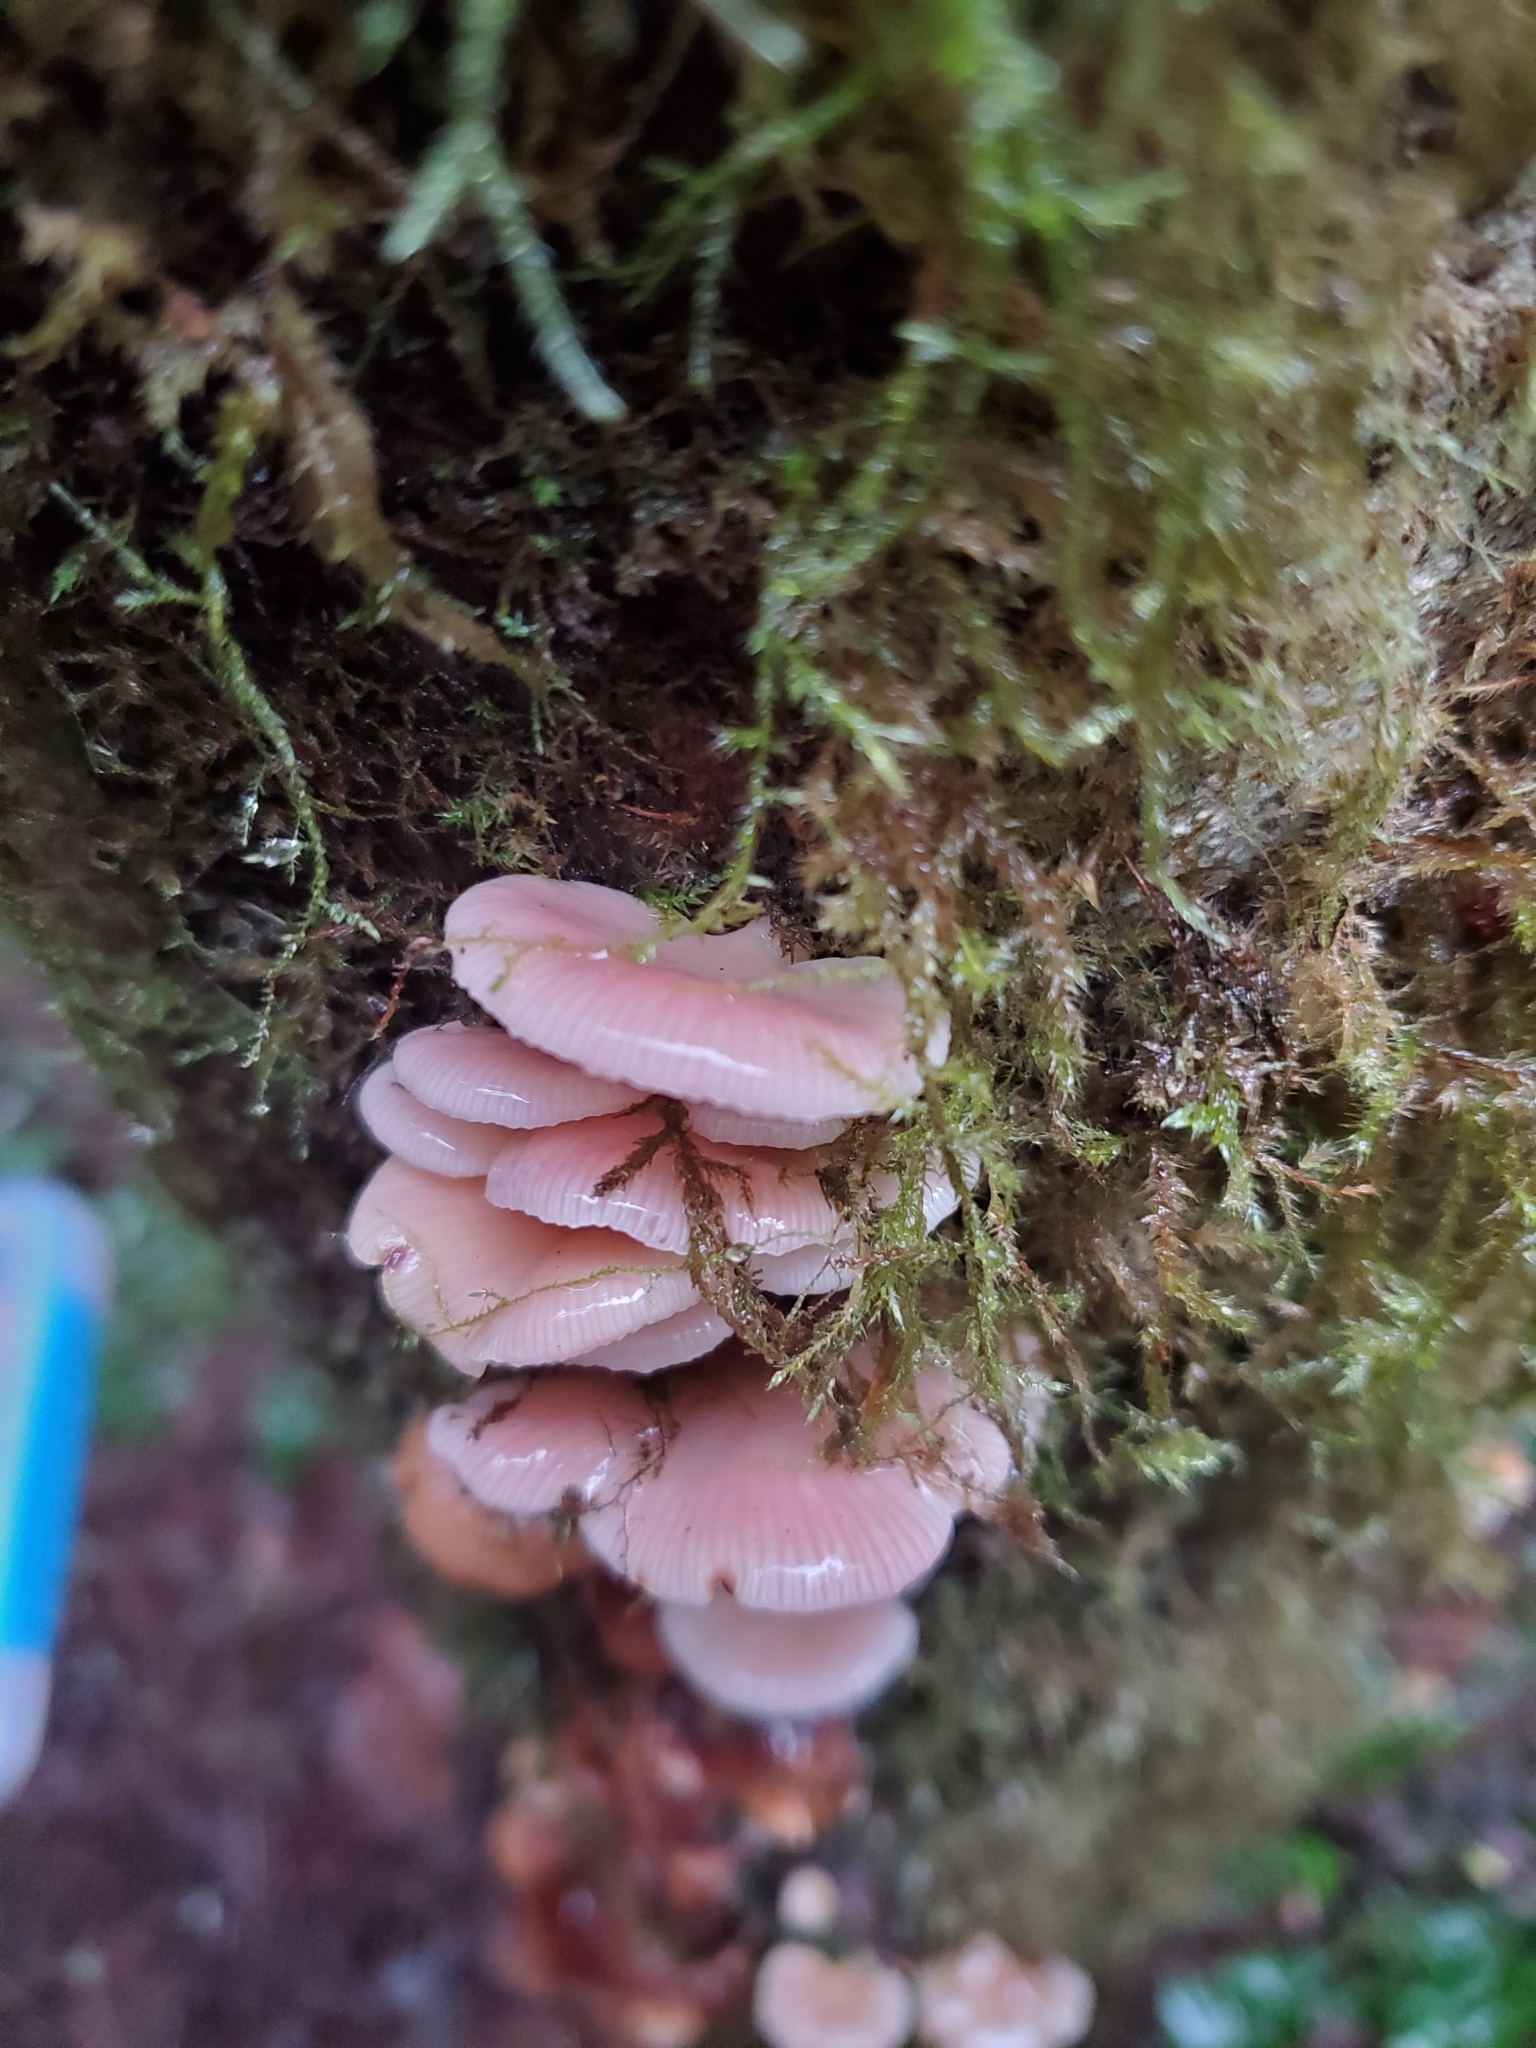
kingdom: Fungi
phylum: Basidiomycota
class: Agaricomycetes
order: Agaricales
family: Mycenaceae
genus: Panellus
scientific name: Panellus longinquus
